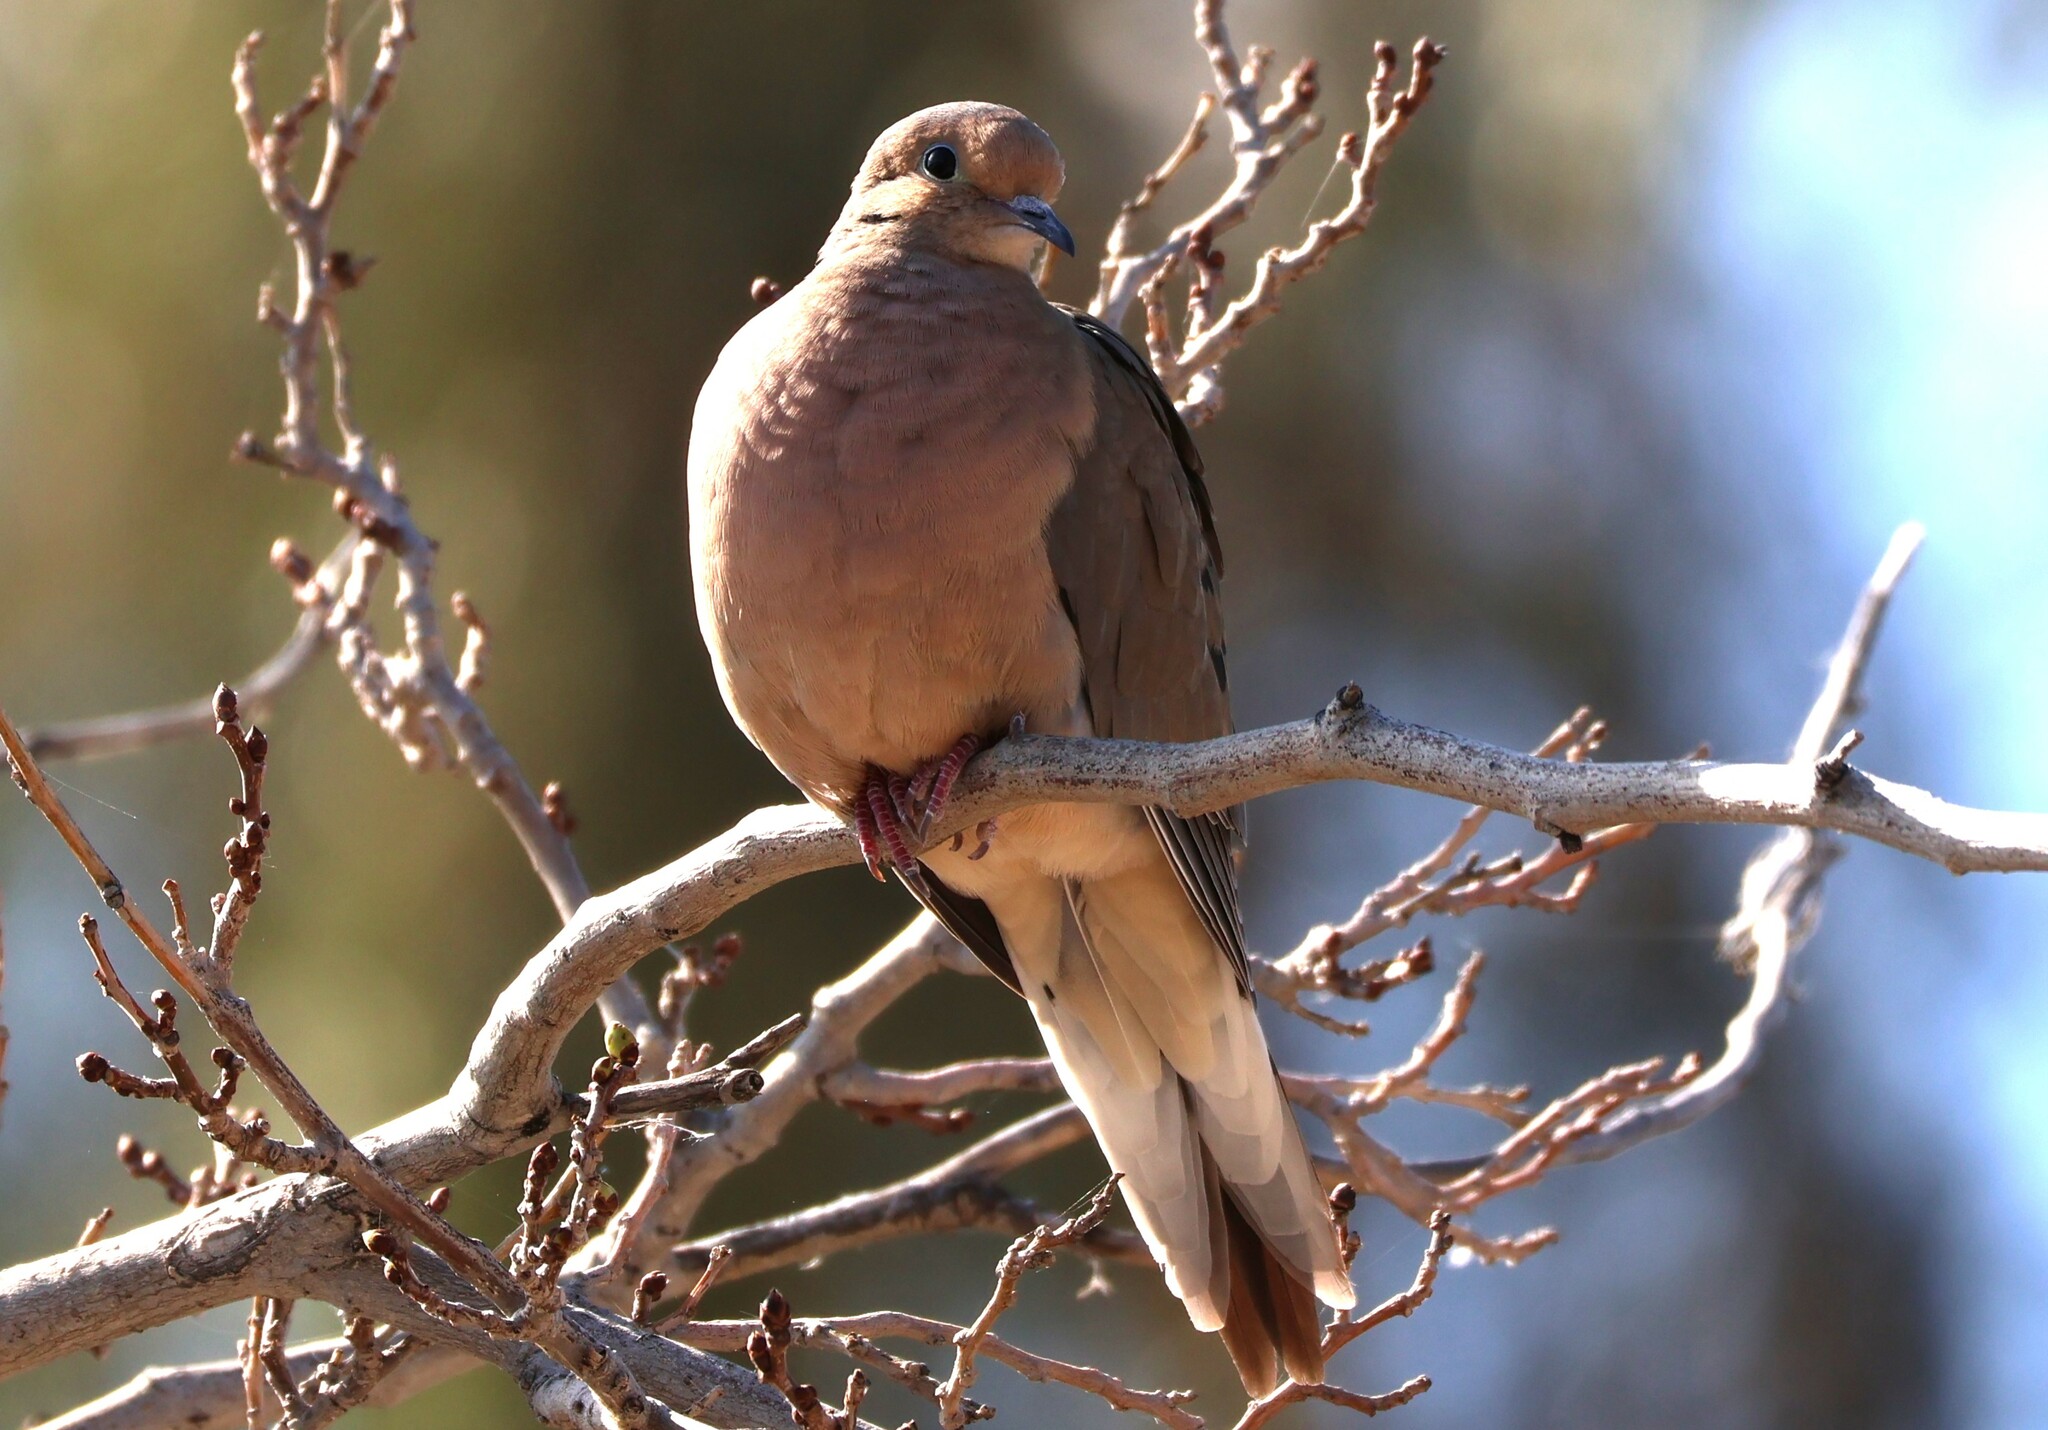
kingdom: Animalia
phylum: Chordata
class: Aves
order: Columbiformes
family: Columbidae
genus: Zenaida
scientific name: Zenaida macroura
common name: Mourning dove
